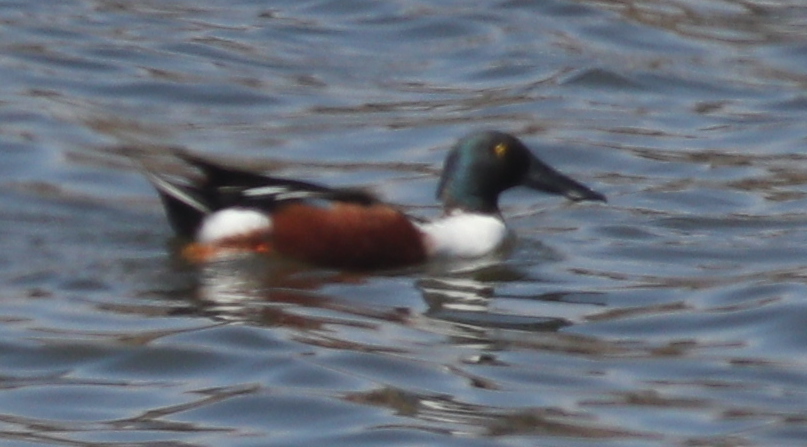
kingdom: Animalia
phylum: Chordata
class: Aves
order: Anseriformes
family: Anatidae
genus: Spatula
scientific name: Spatula clypeata
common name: Northern shoveler
